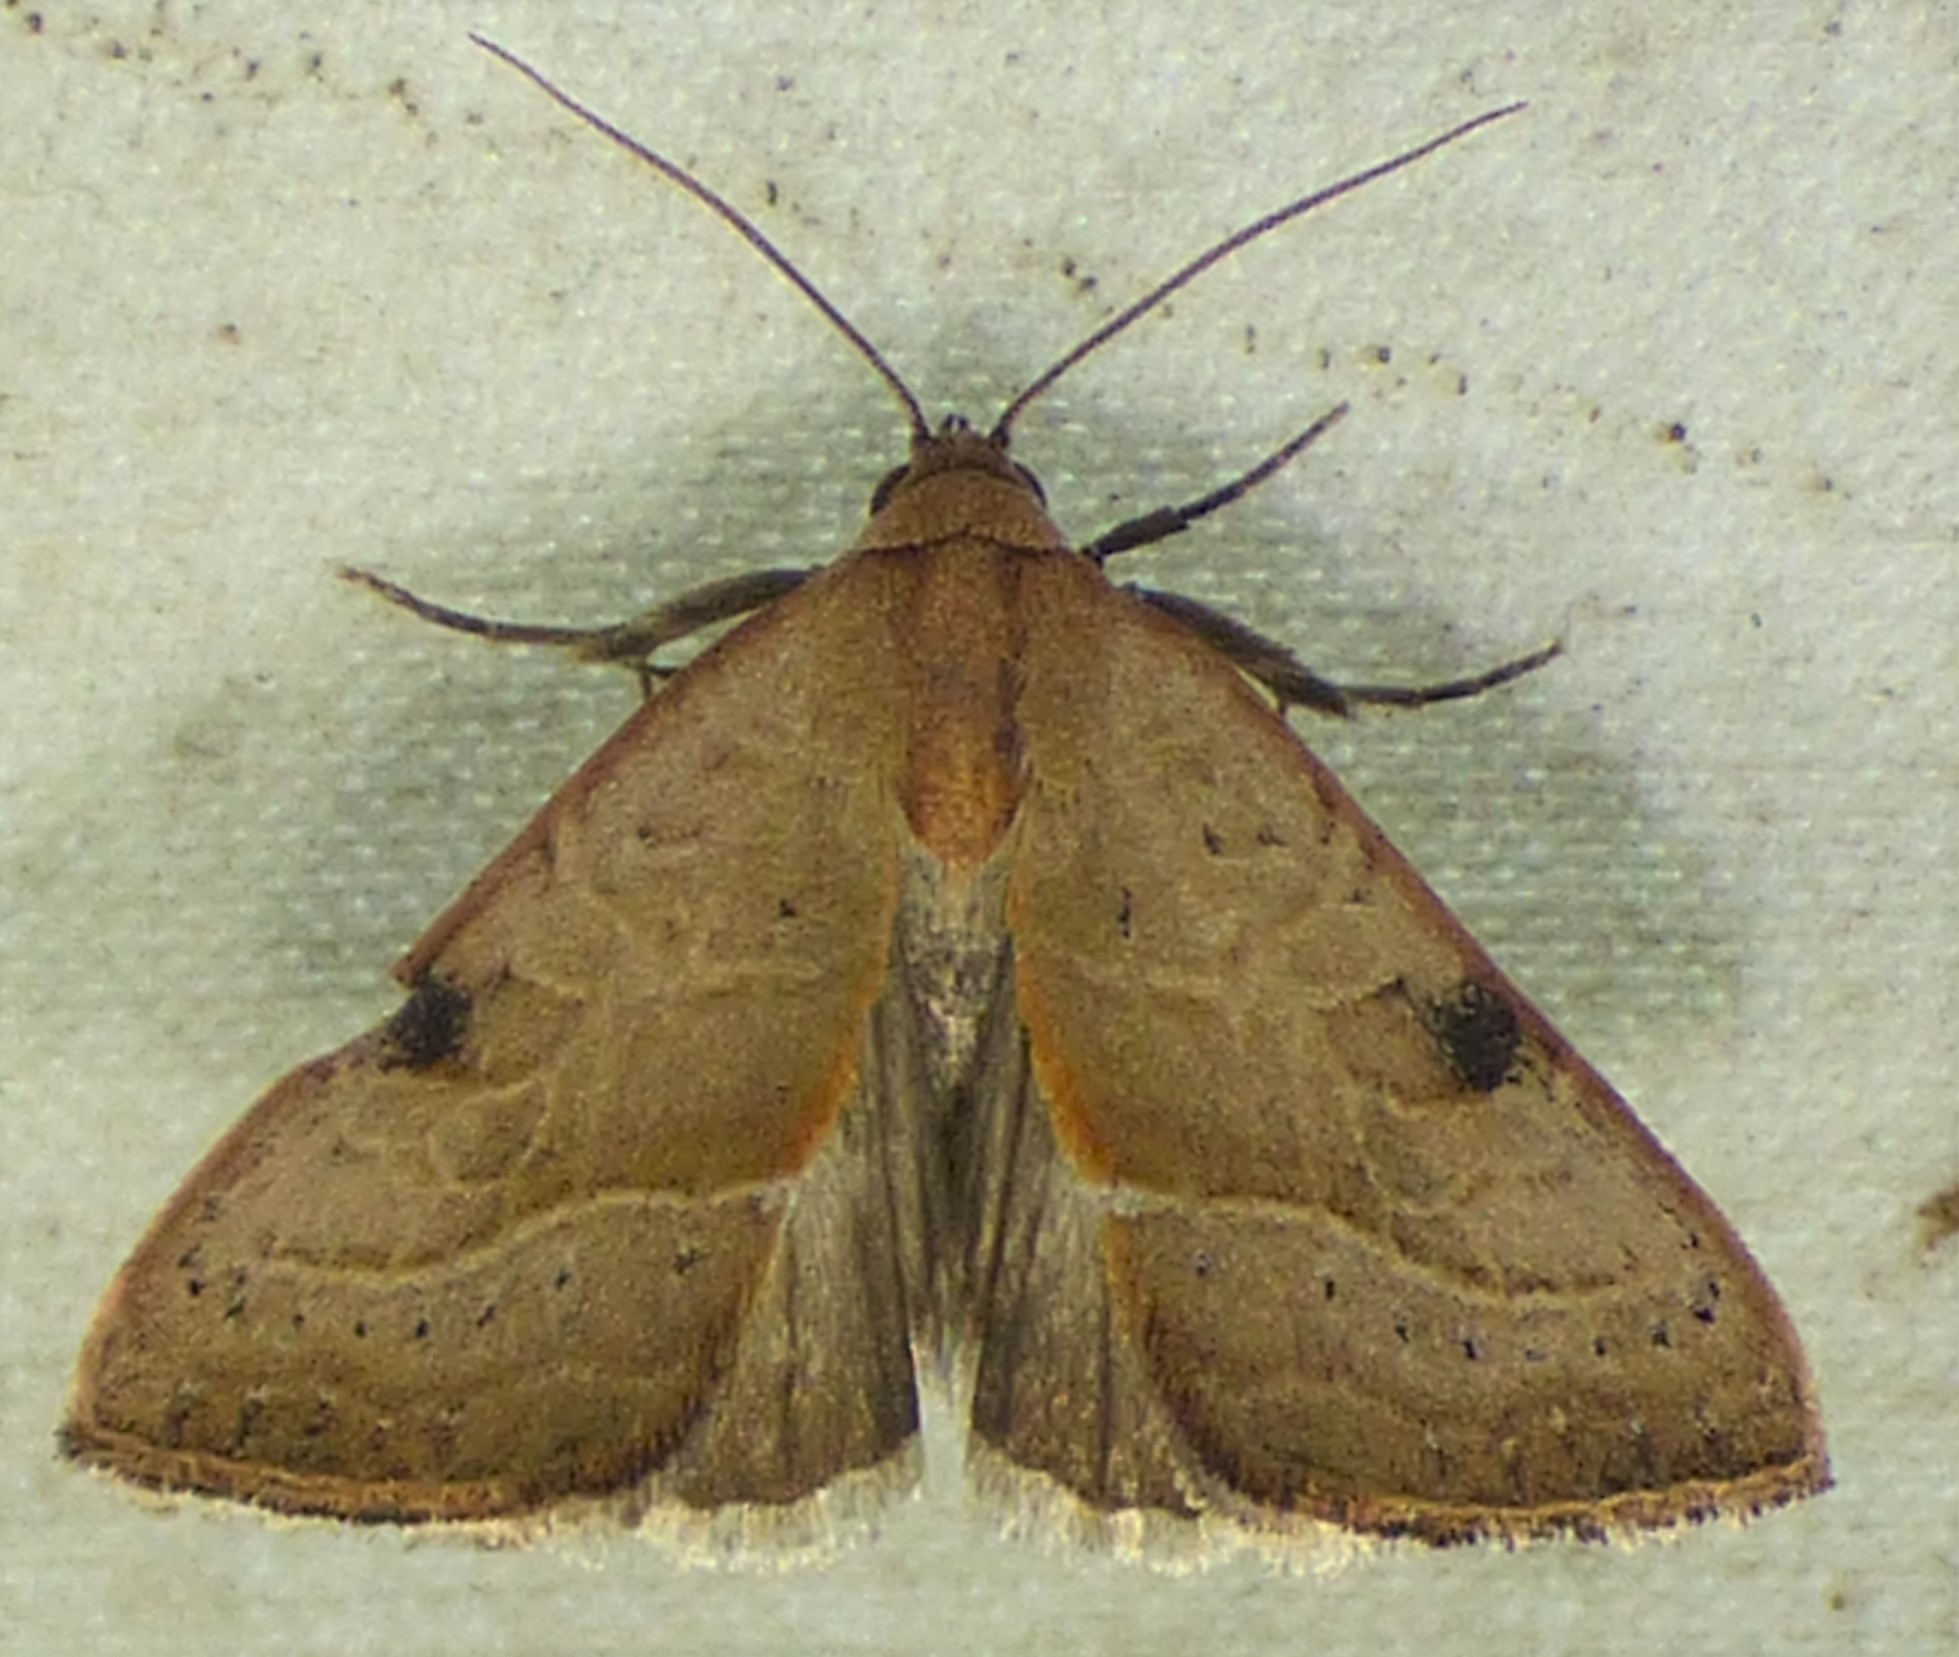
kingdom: Animalia
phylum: Arthropoda
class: Insecta
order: Lepidoptera
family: Noctuidae
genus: Galgula
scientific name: Galgula partita
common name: Wedgeling
